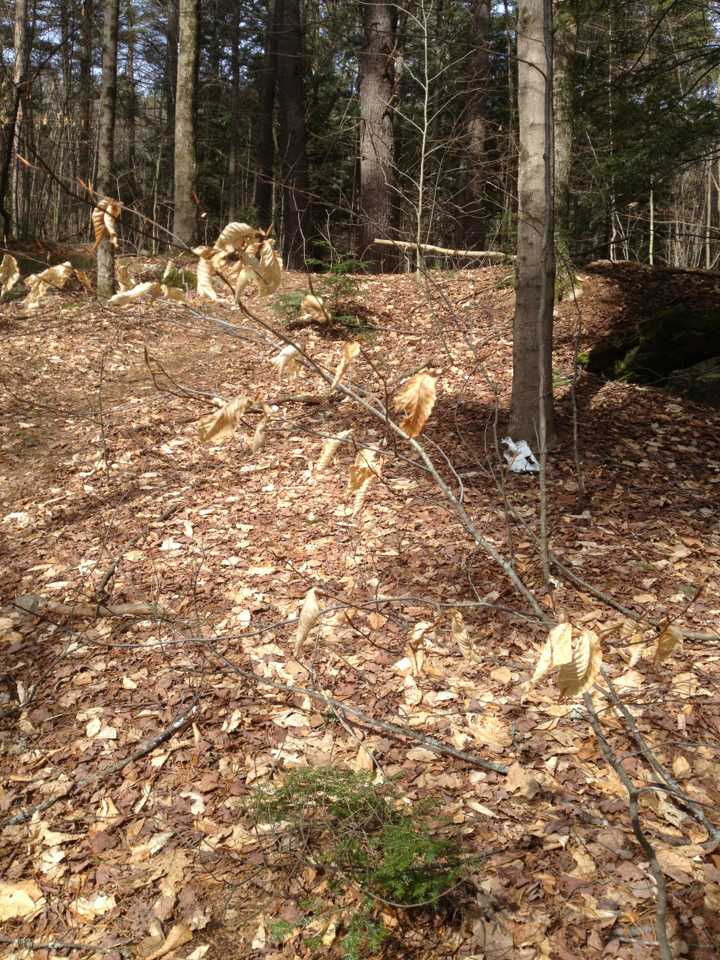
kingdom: Plantae
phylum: Tracheophyta
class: Magnoliopsida
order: Fagales
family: Fagaceae
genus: Fagus
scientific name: Fagus grandifolia
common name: American beech
